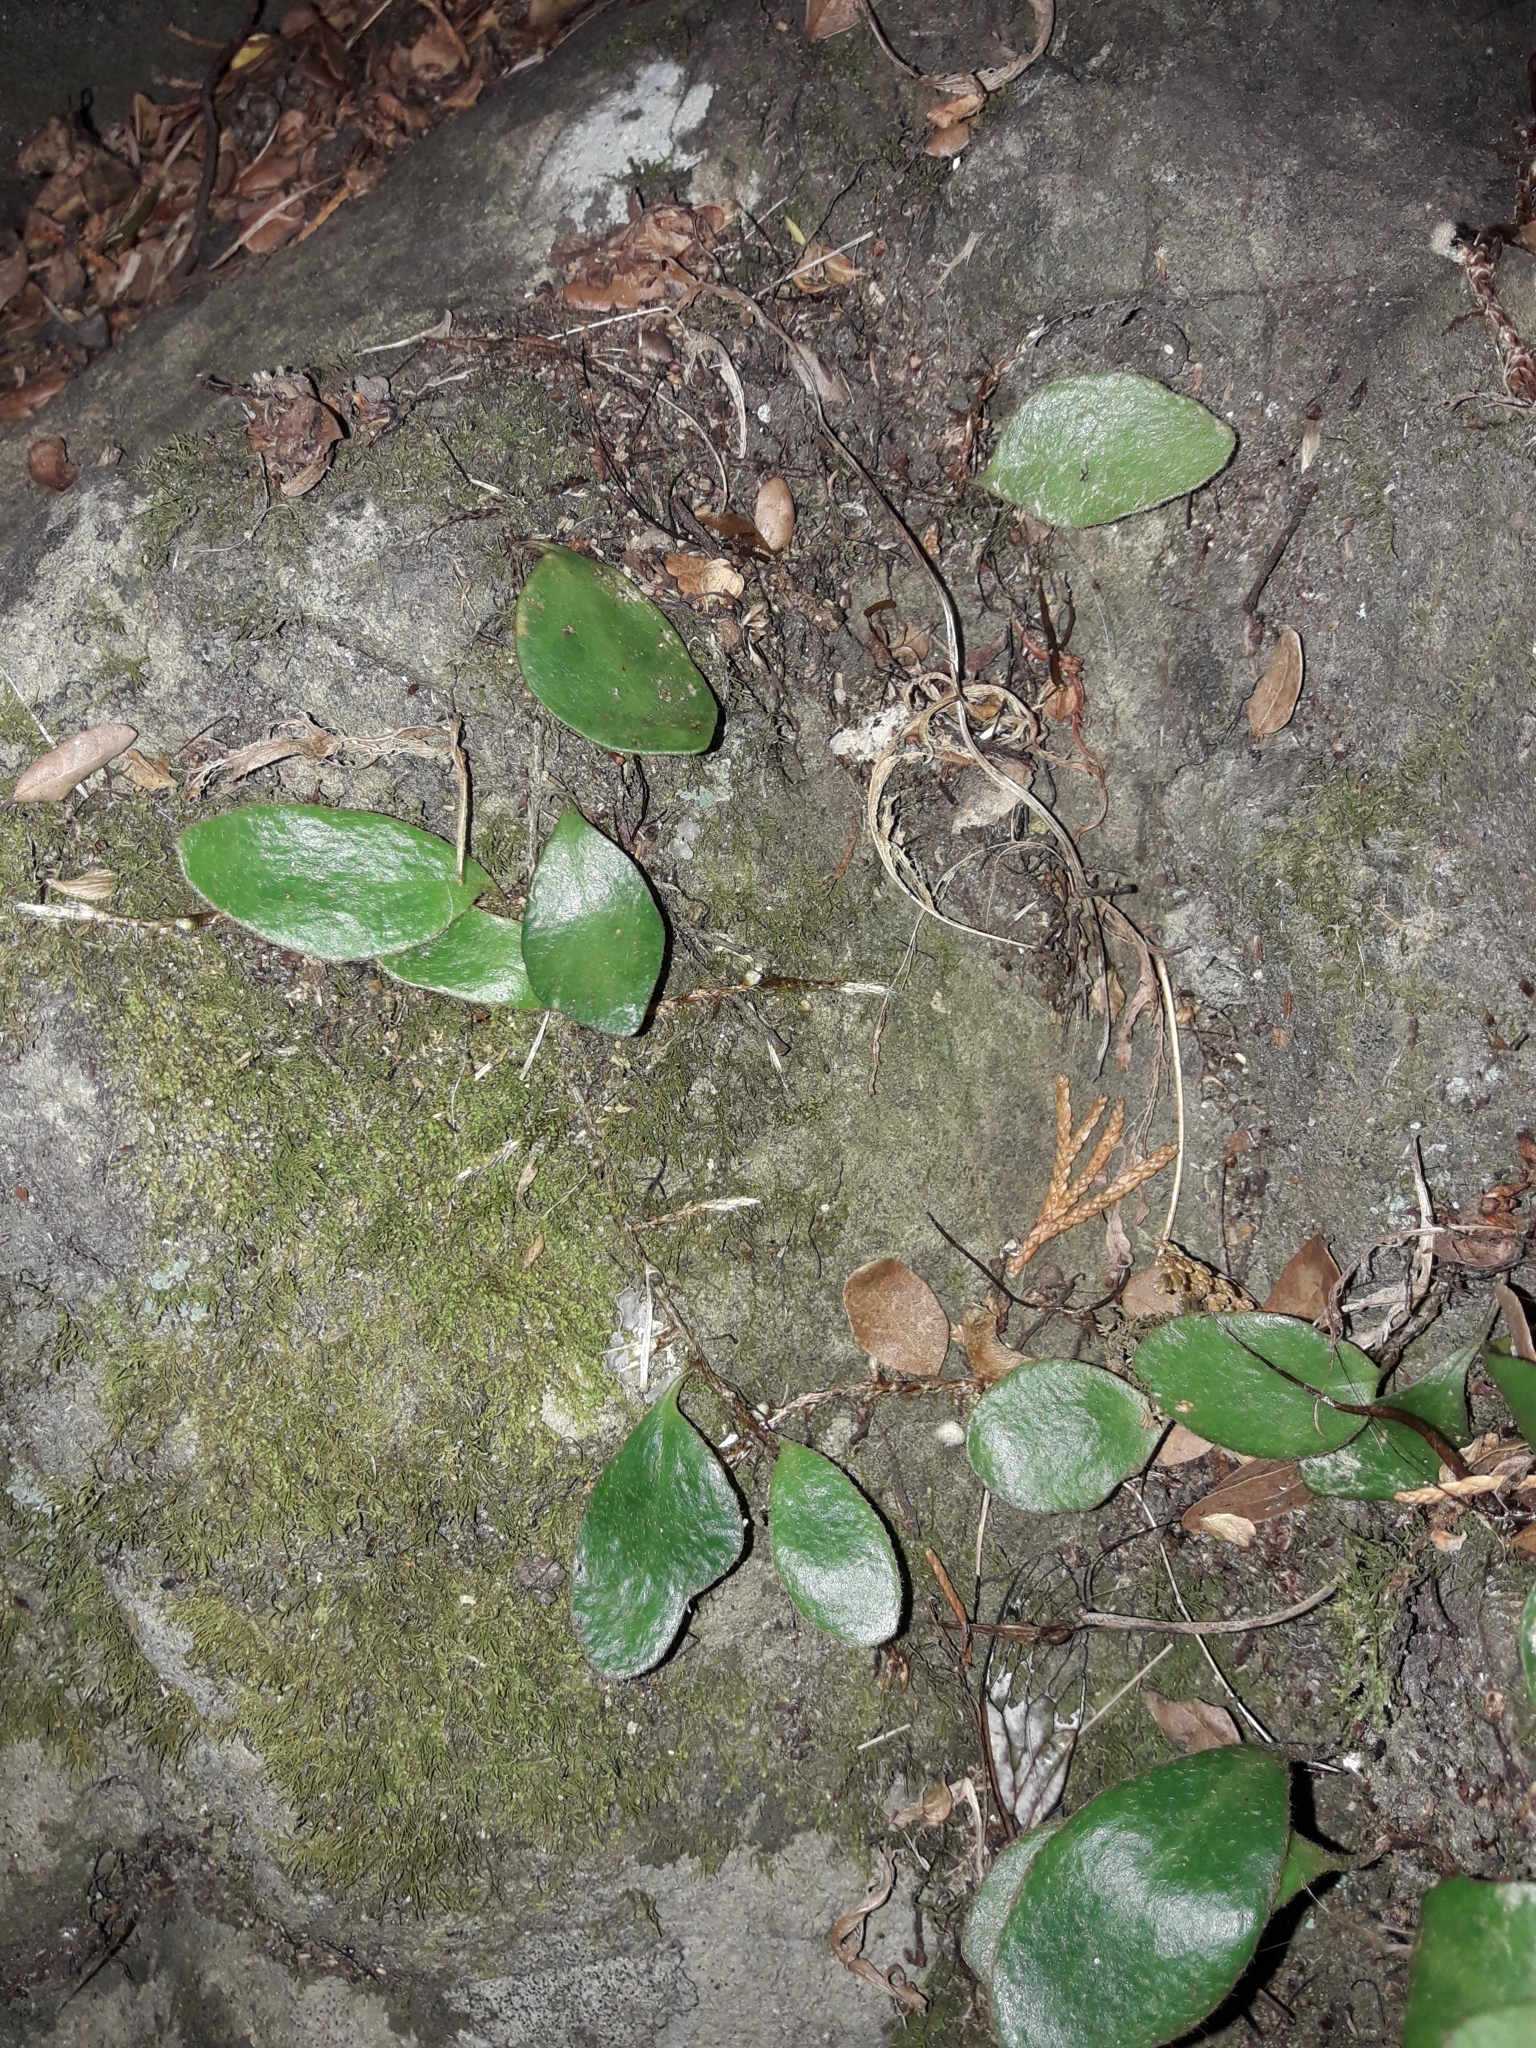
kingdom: Plantae
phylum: Tracheophyta
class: Polypodiopsida
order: Polypodiales
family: Polypodiaceae
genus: Pyrrosia
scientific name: Pyrrosia eleagnifolia
